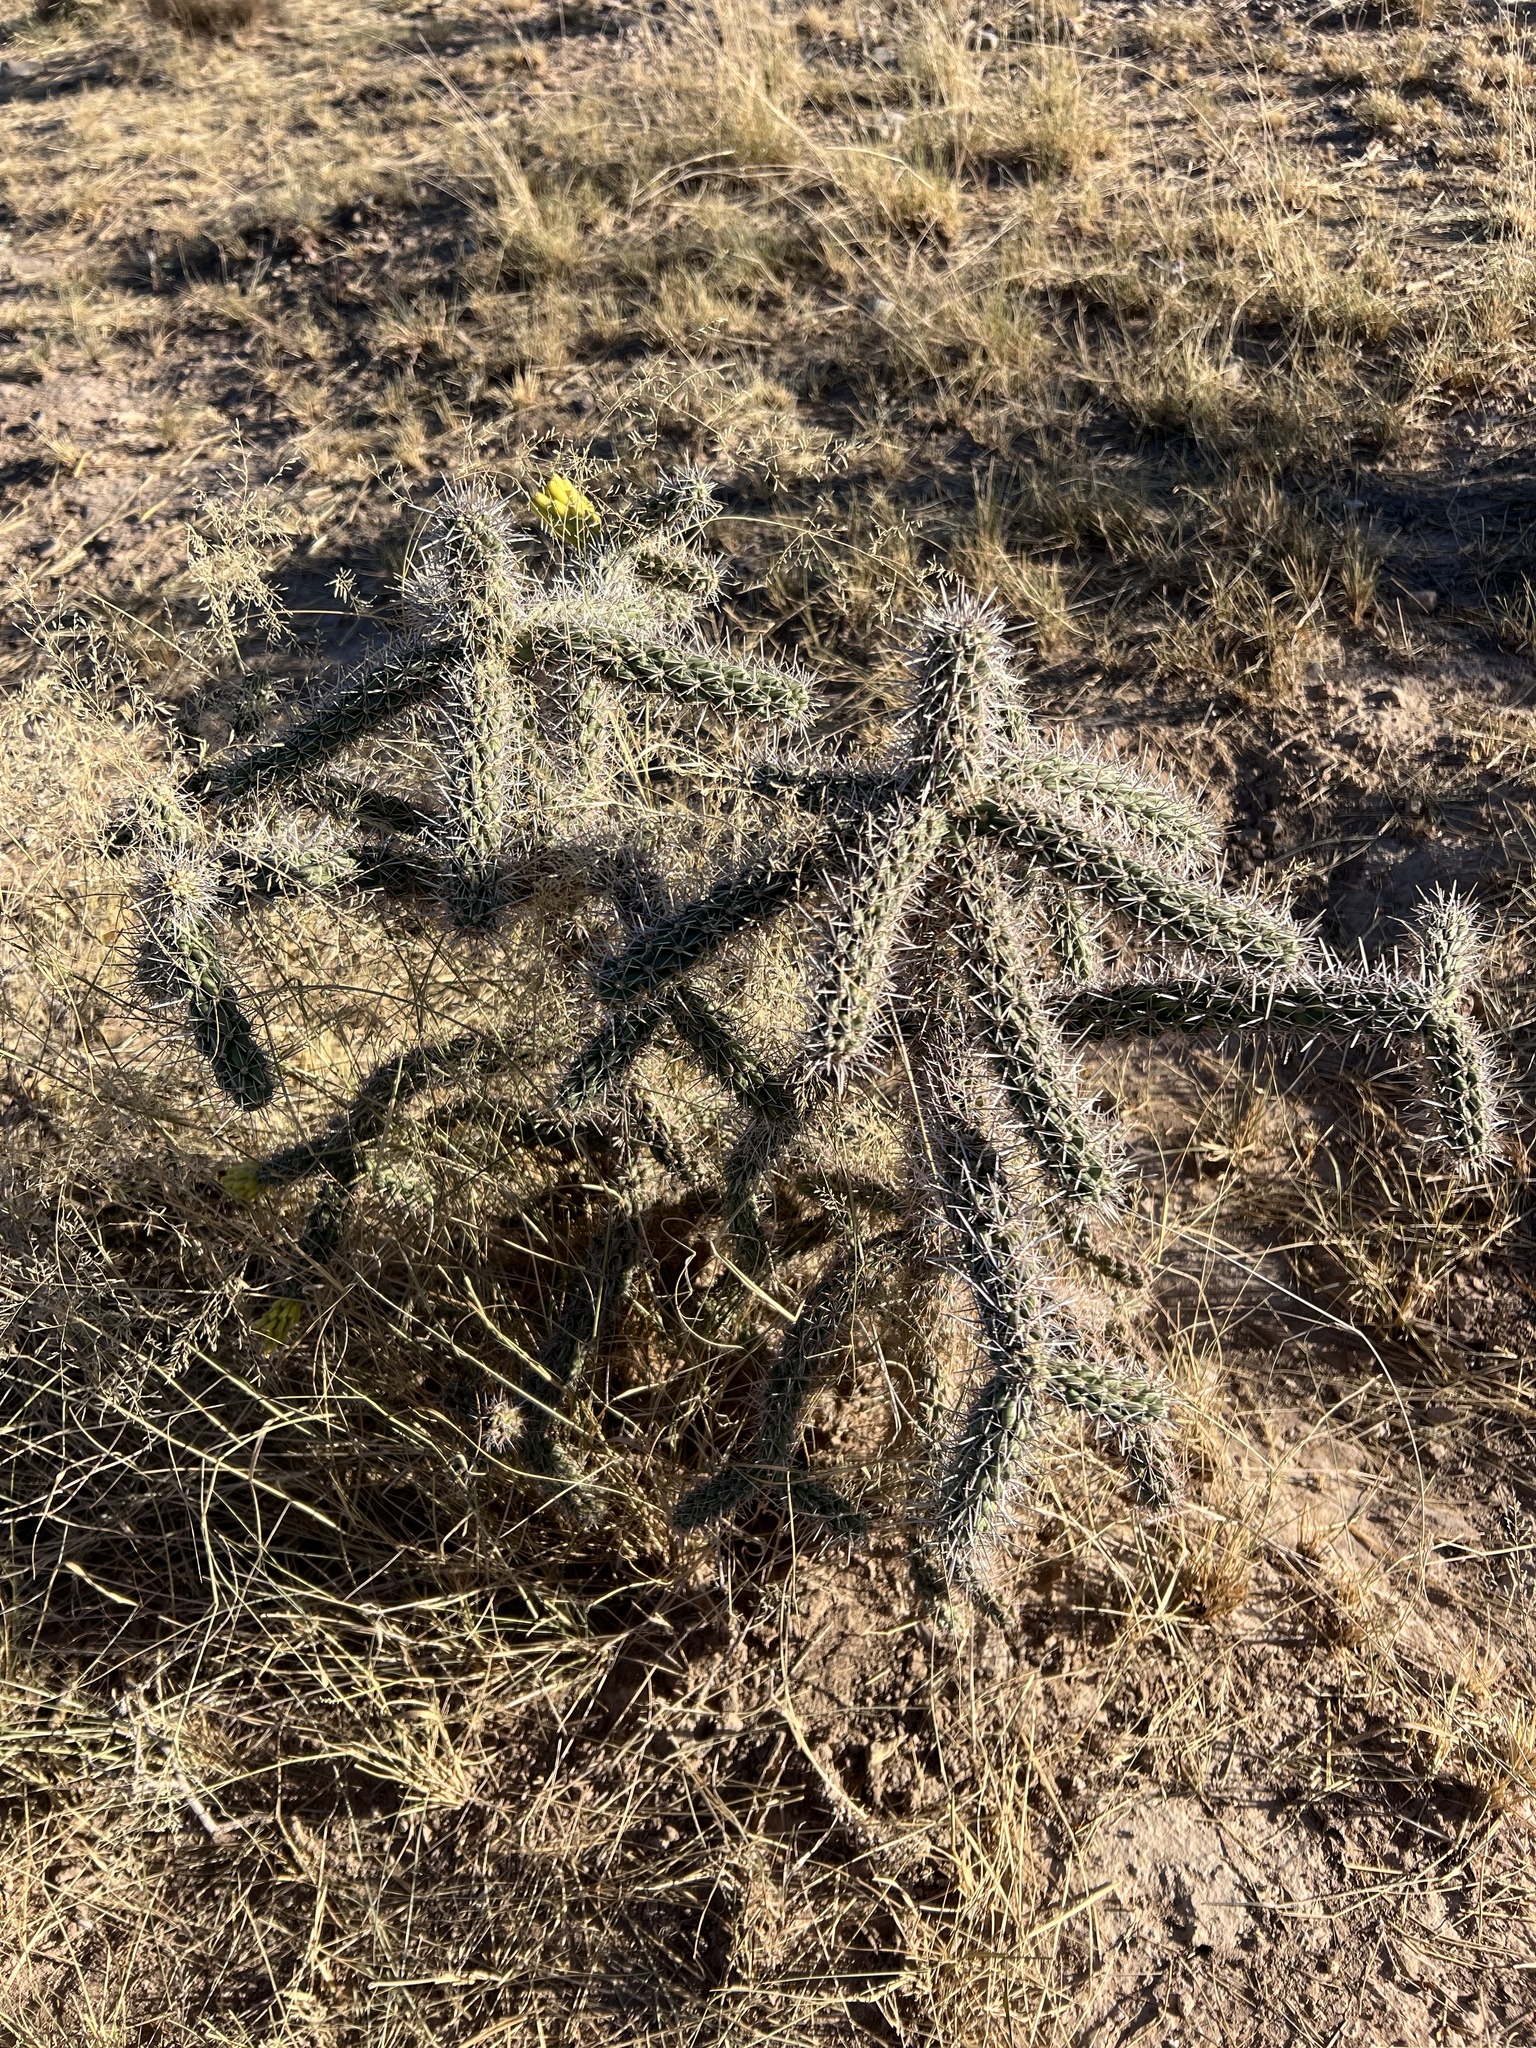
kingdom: Plantae
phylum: Tracheophyta
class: Magnoliopsida
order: Caryophyllales
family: Cactaceae
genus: Cylindropuntia
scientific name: Cylindropuntia imbricata
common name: Candelabrum cactus
